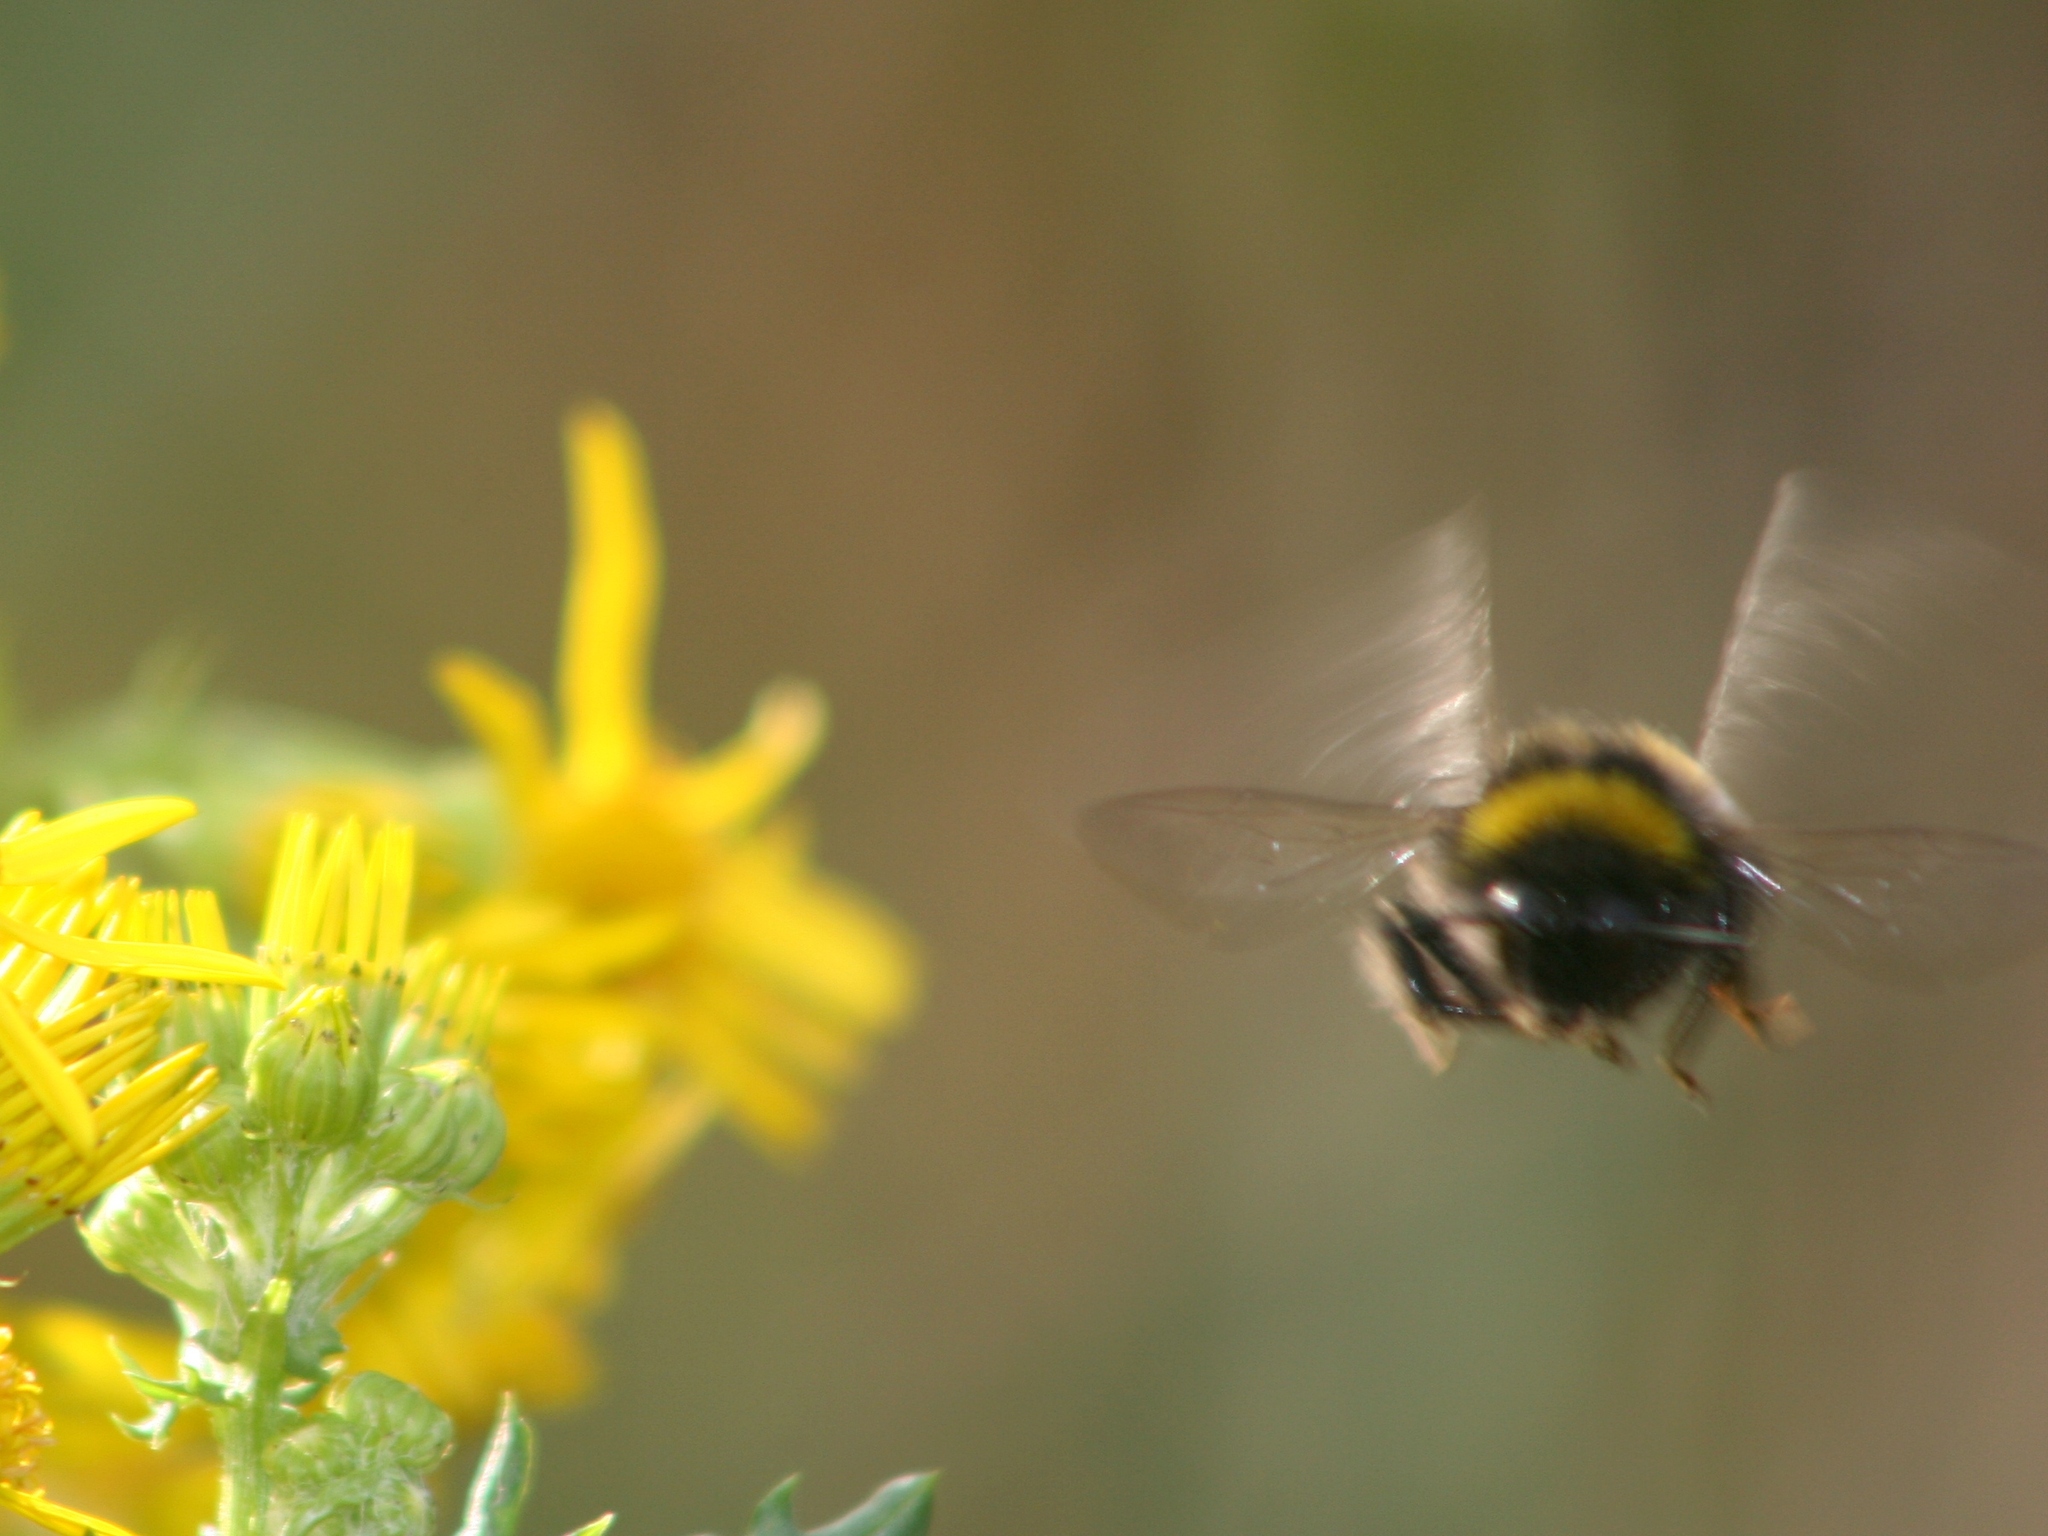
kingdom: Animalia
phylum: Arthropoda
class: Insecta
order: Hymenoptera
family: Apidae
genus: Bombus
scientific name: Bombus terrestris
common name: Buff-tailed bumblebee
